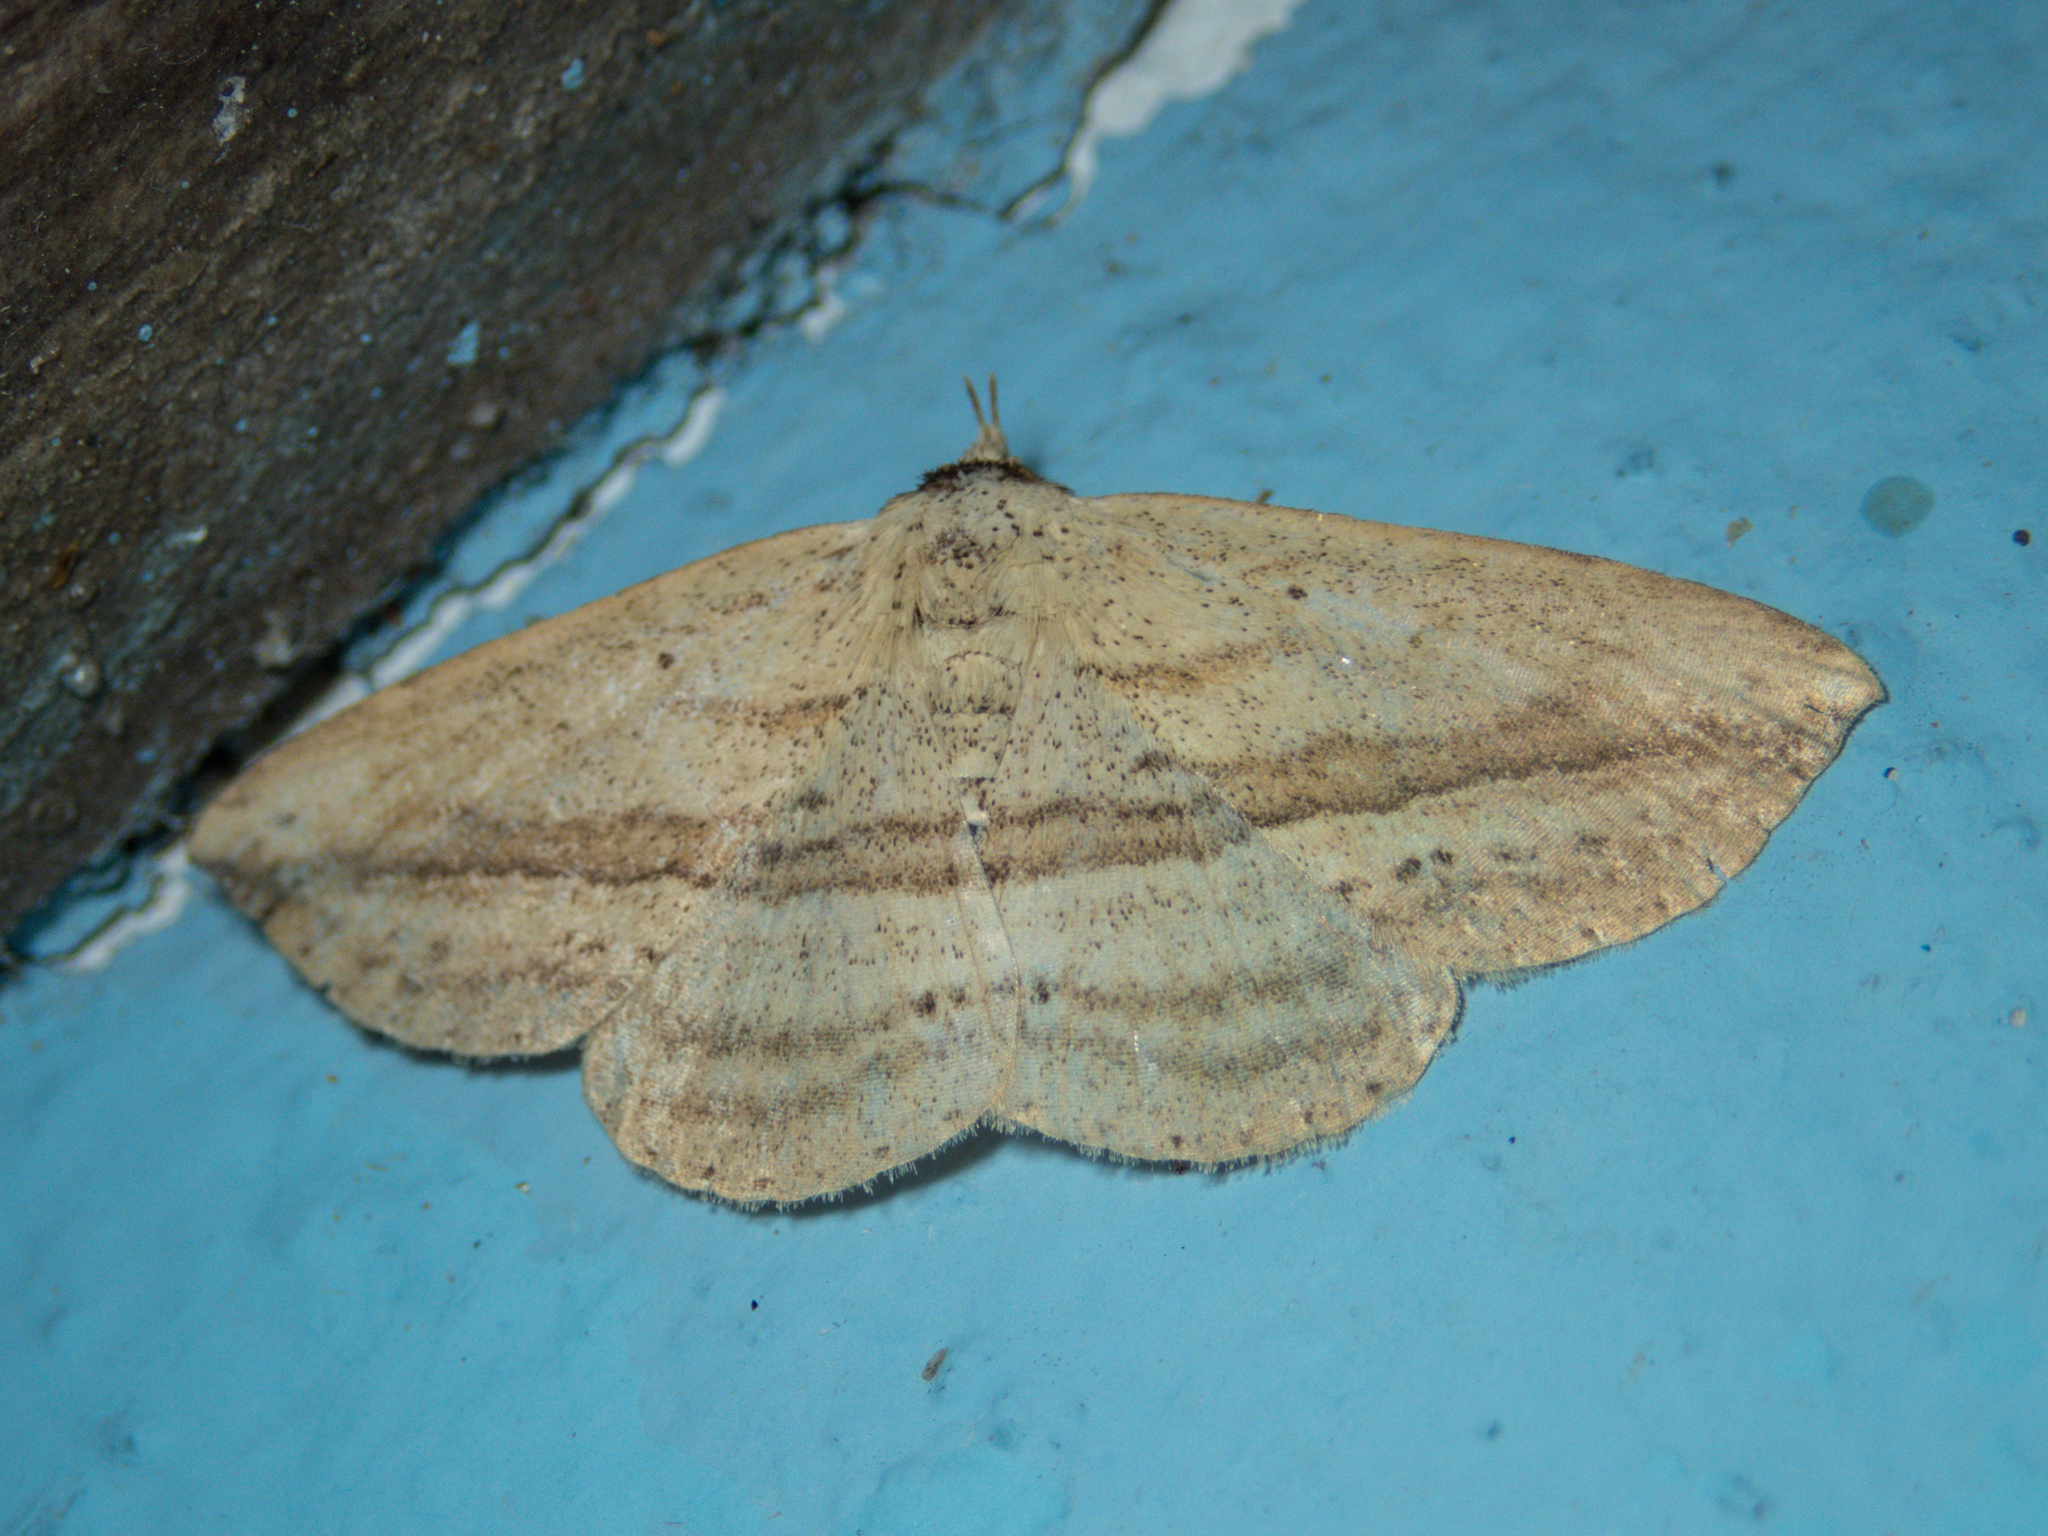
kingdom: Animalia
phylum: Arthropoda
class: Insecta
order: Lepidoptera
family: Erebidae
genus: Carsina
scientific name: Carsina kanshireiensis
